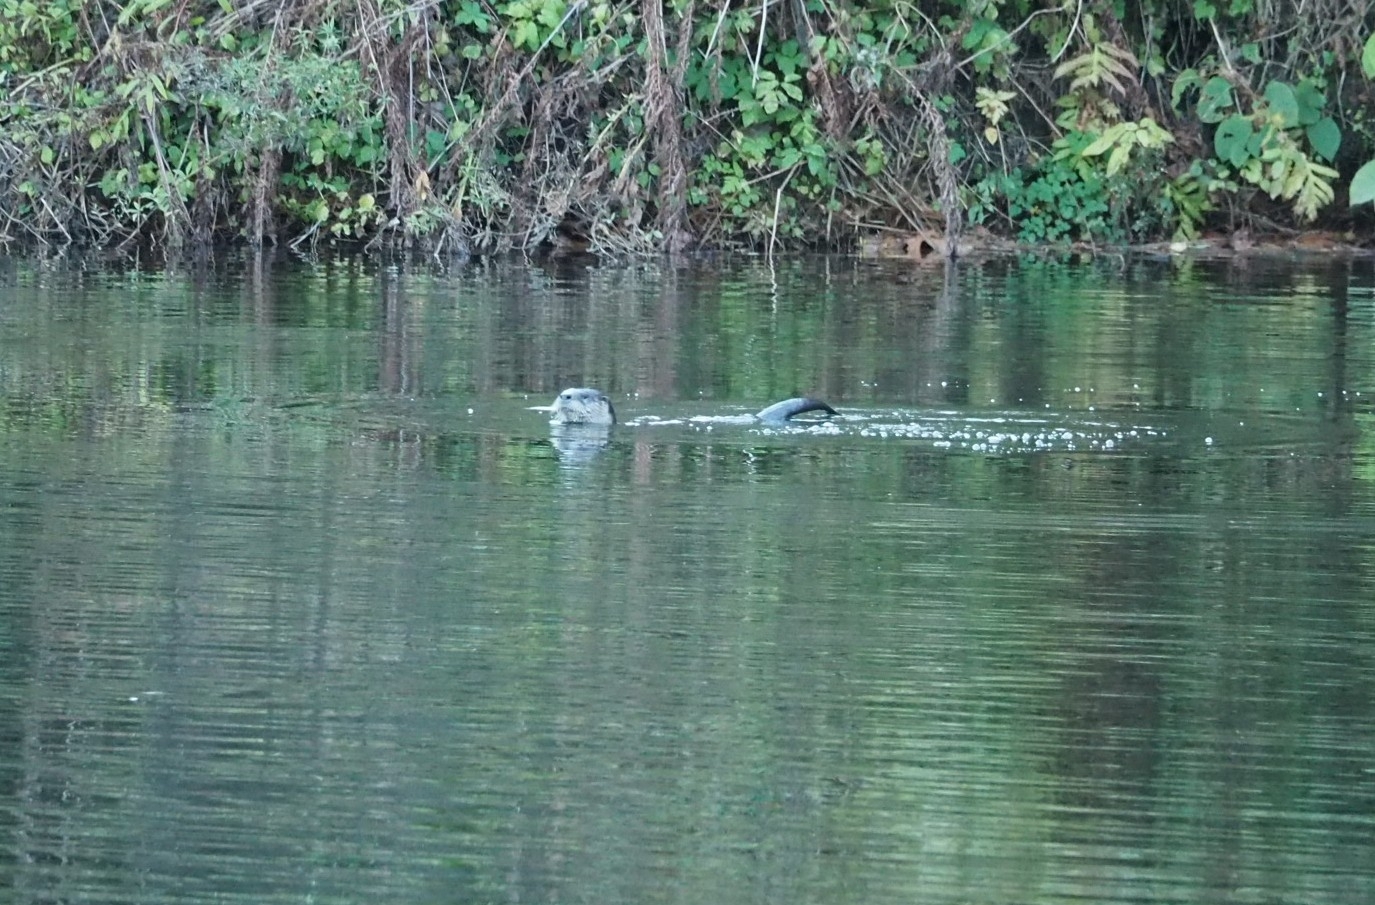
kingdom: Animalia
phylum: Chordata
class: Mammalia
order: Carnivora
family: Mustelidae
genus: Lontra
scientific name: Lontra canadensis
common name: North american river otter
